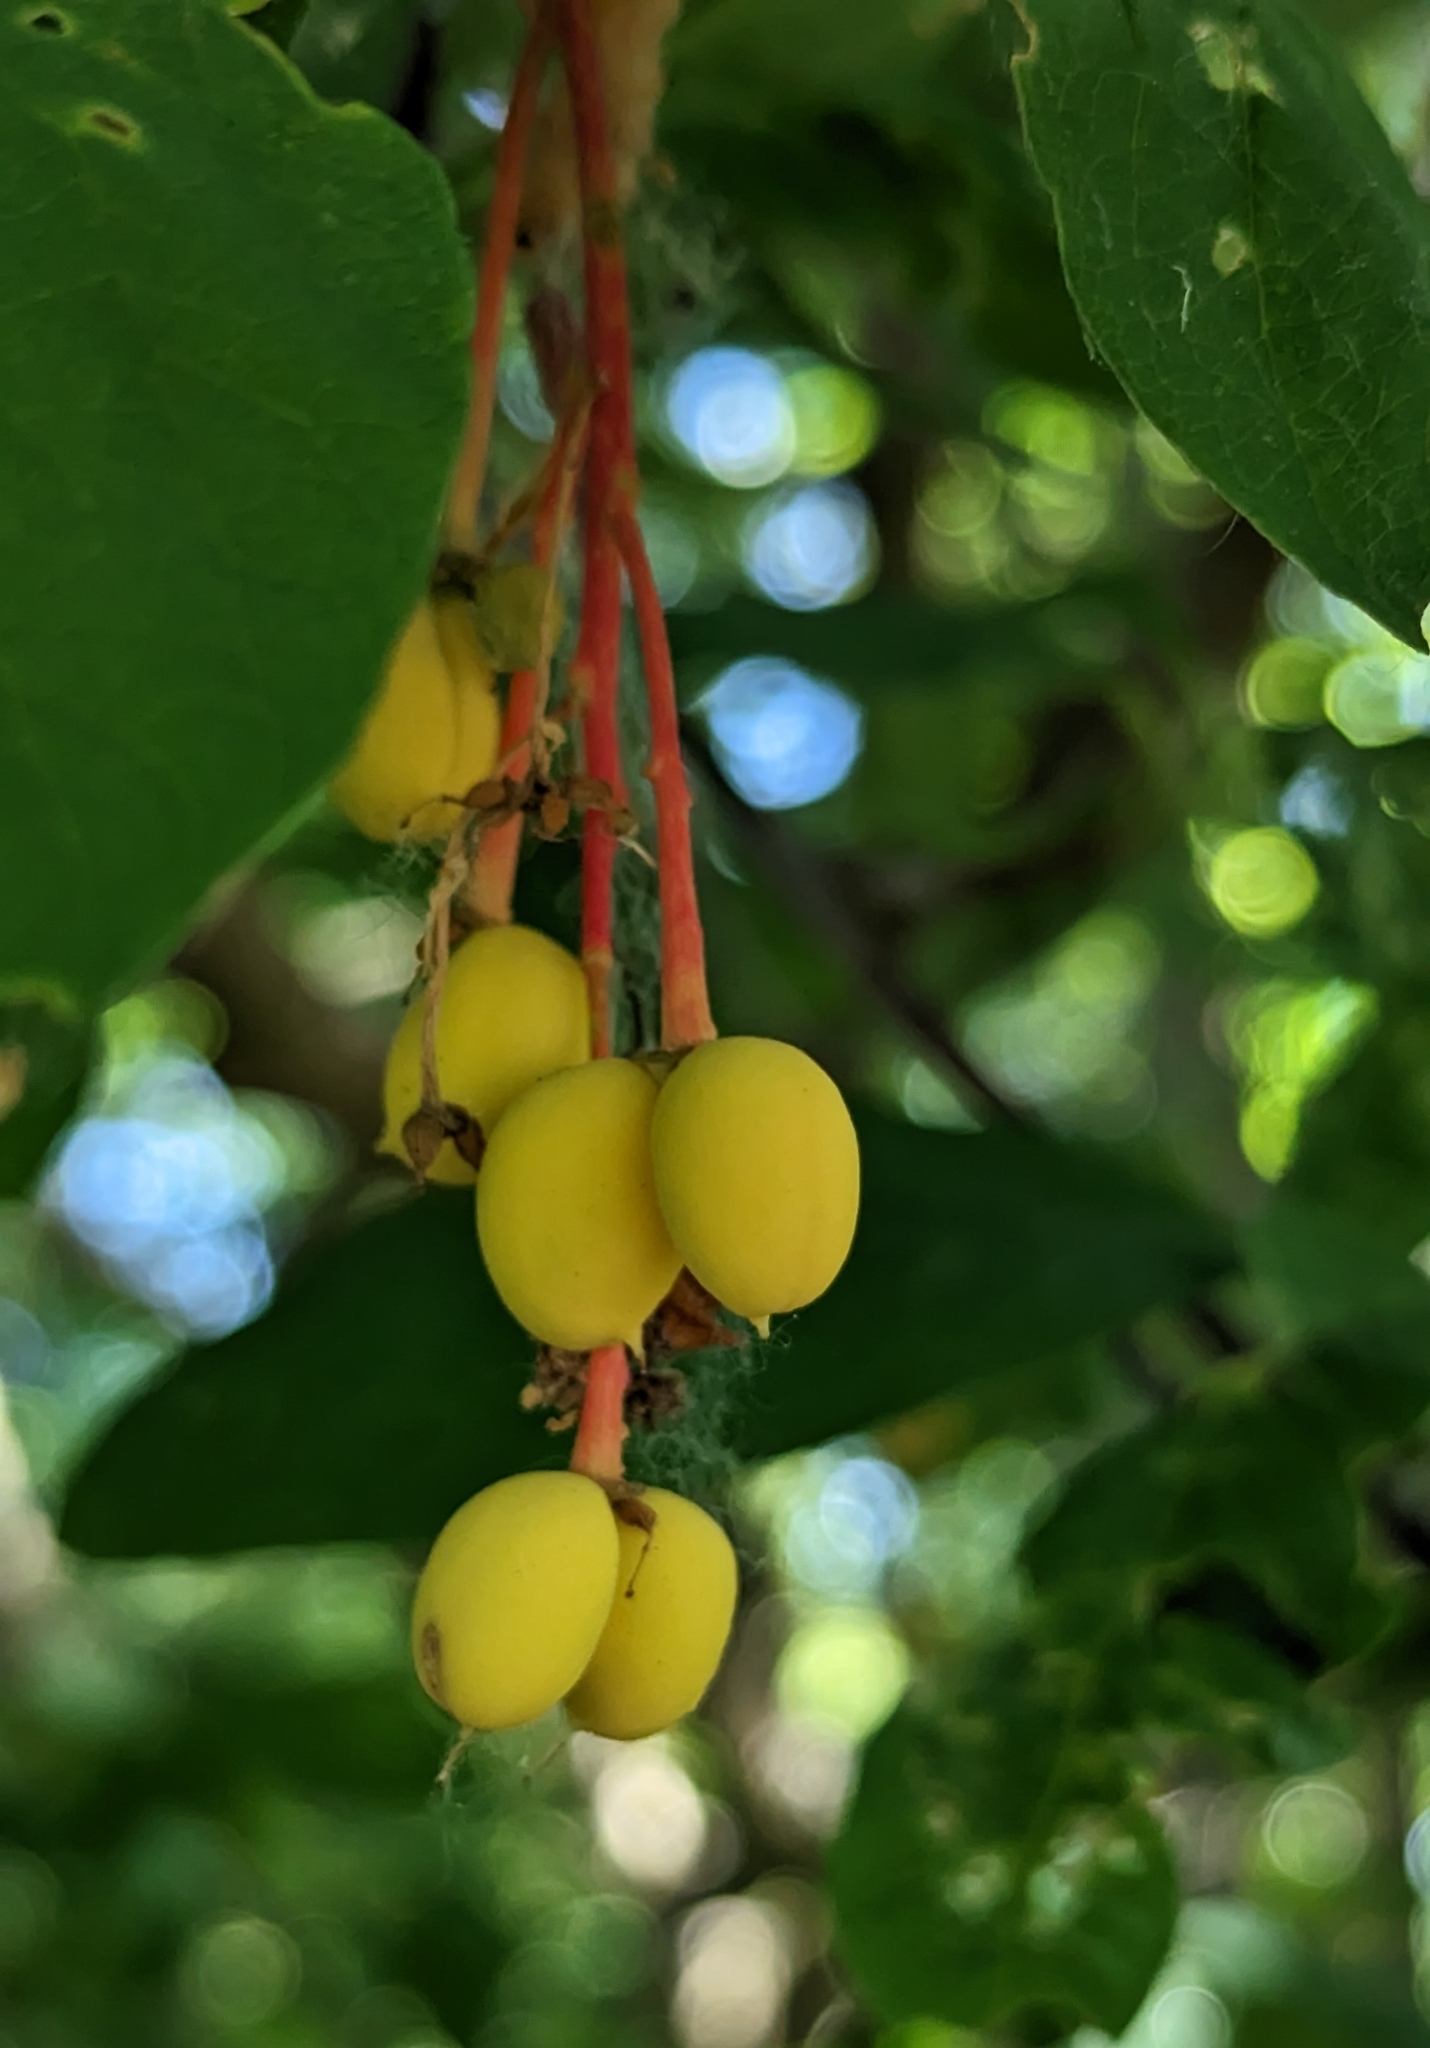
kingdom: Plantae
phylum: Tracheophyta
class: Magnoliopsida
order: Rosales
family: Rosaceae
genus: Oemleria
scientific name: Oemleria cerasiformis
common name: Osoberry
